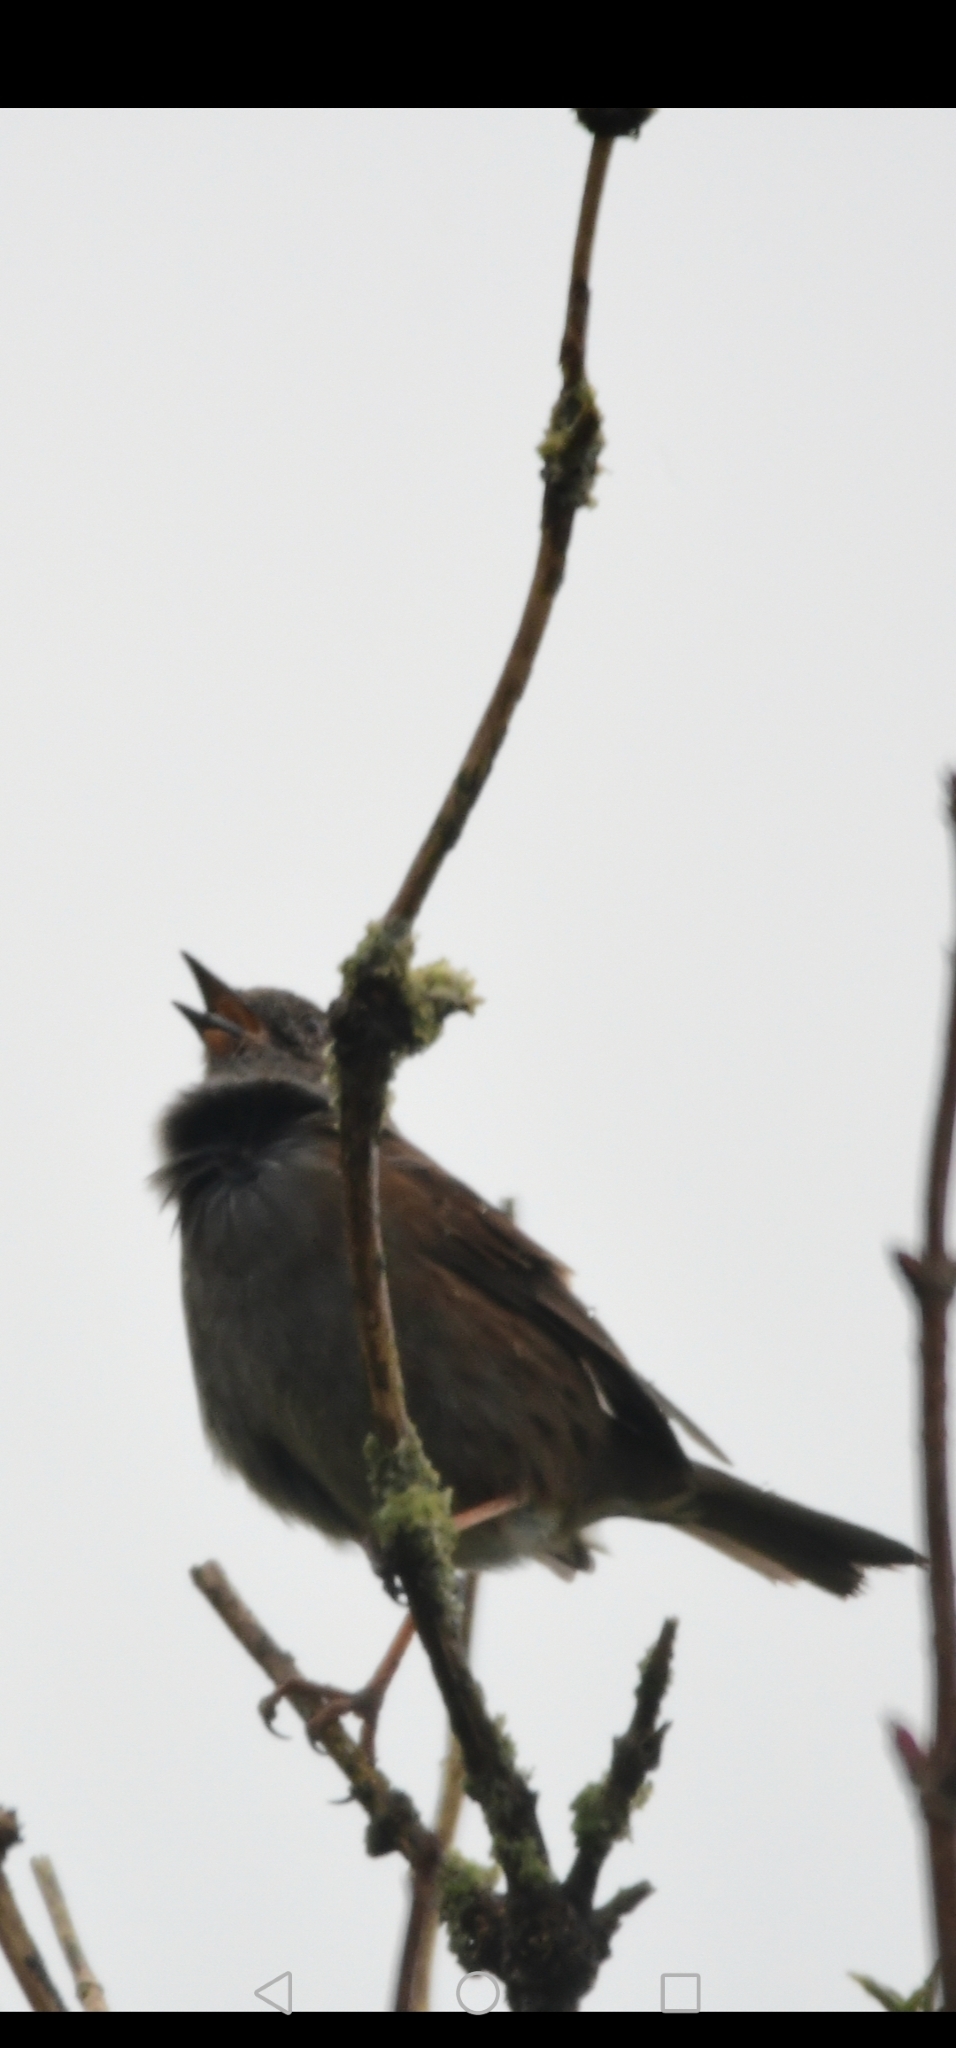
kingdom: Animalia
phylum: Chordata
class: Aves
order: Passeriformes
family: Prunellidae
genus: Prunella
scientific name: Prunella modularis
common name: Dunnock
